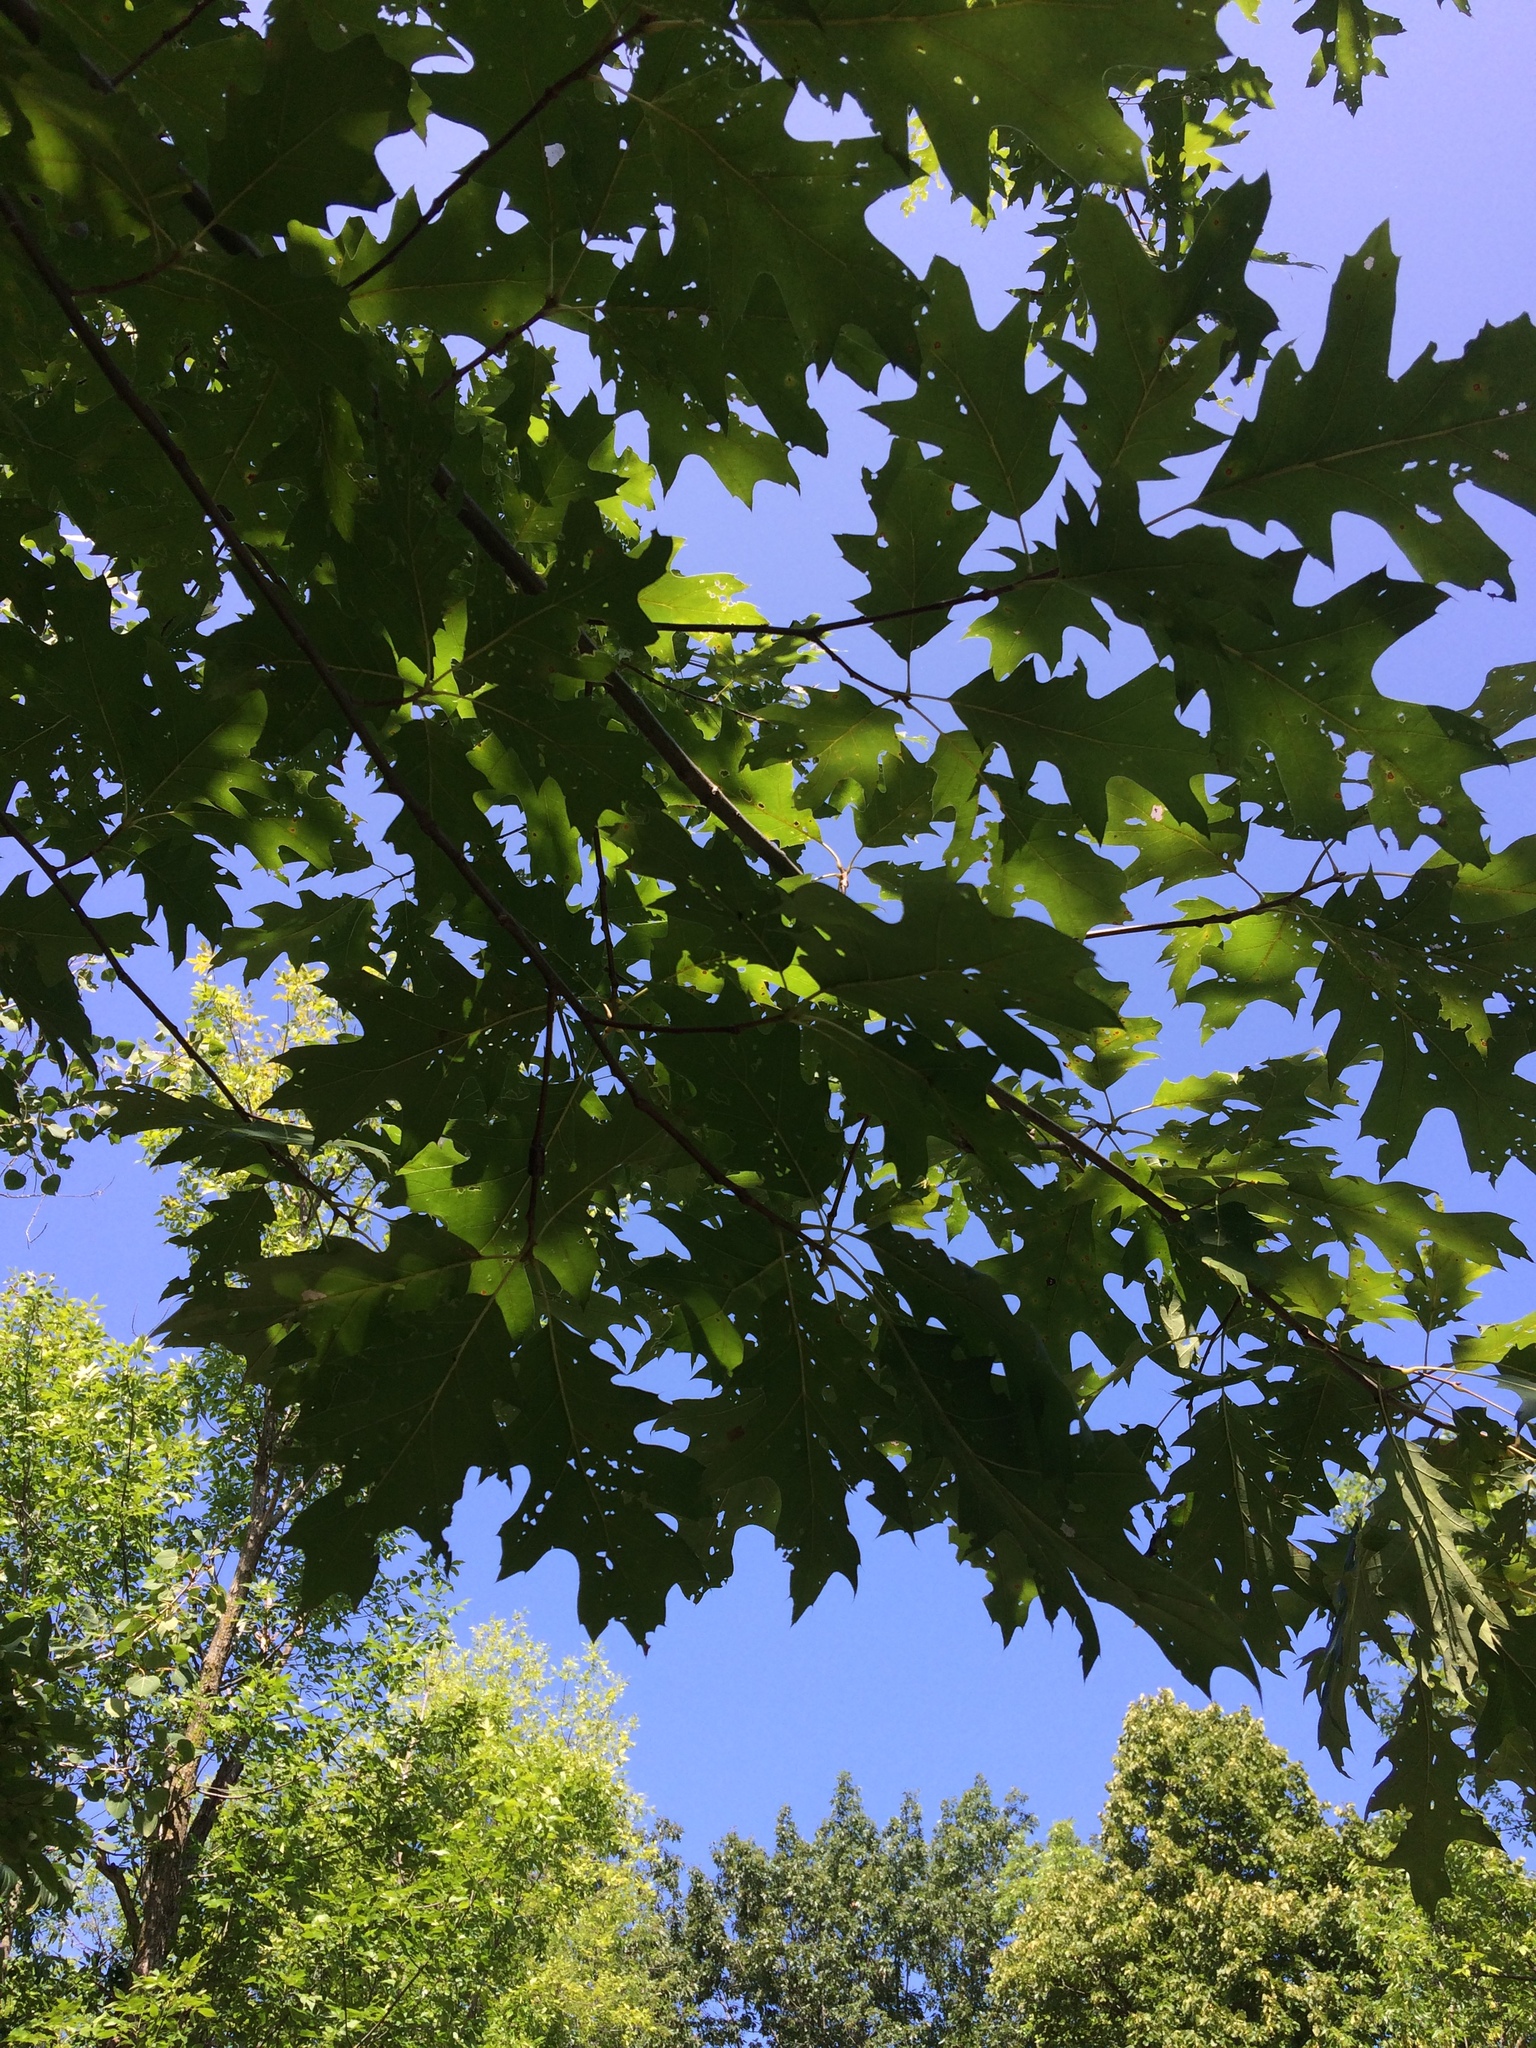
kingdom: Plantae
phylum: Tracheophyta
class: Magnoliopsida
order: Fagales
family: Fagaceae
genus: Quercus
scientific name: Quercus rubra
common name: Red oak
